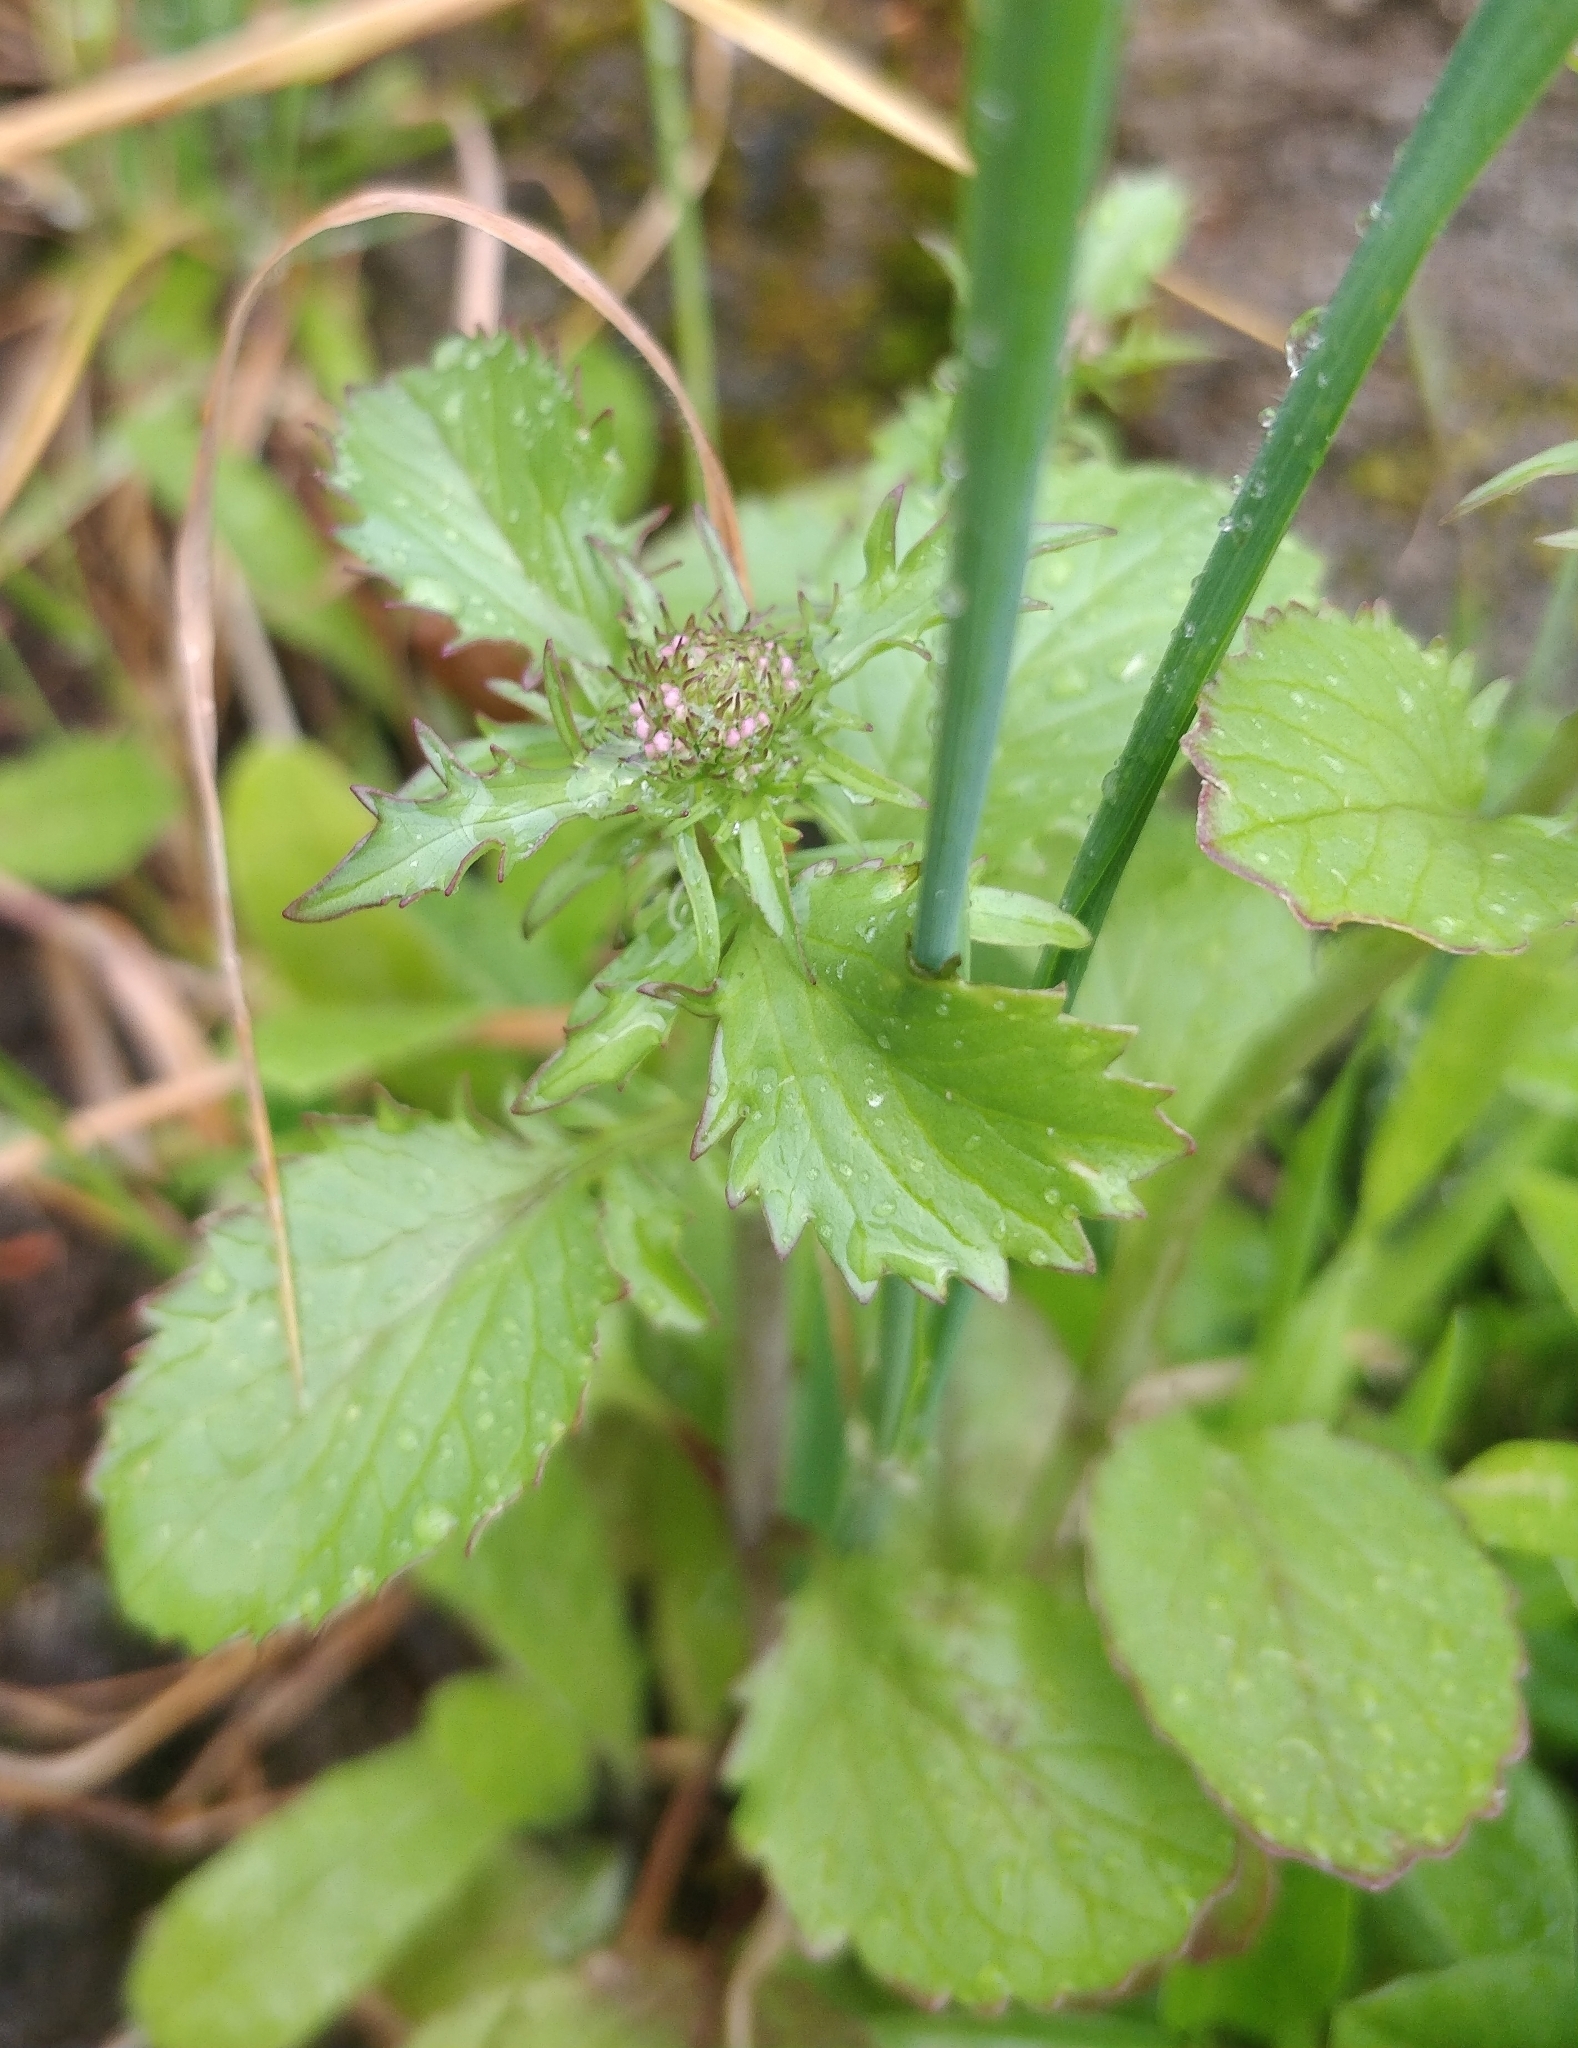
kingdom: Plantae
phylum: Tracheophyta
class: Magnoliopsida
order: Dipsacales
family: Caprifoliaceae
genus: Centranthus
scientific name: Centranthus calcitrapae
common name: Annual valerian
